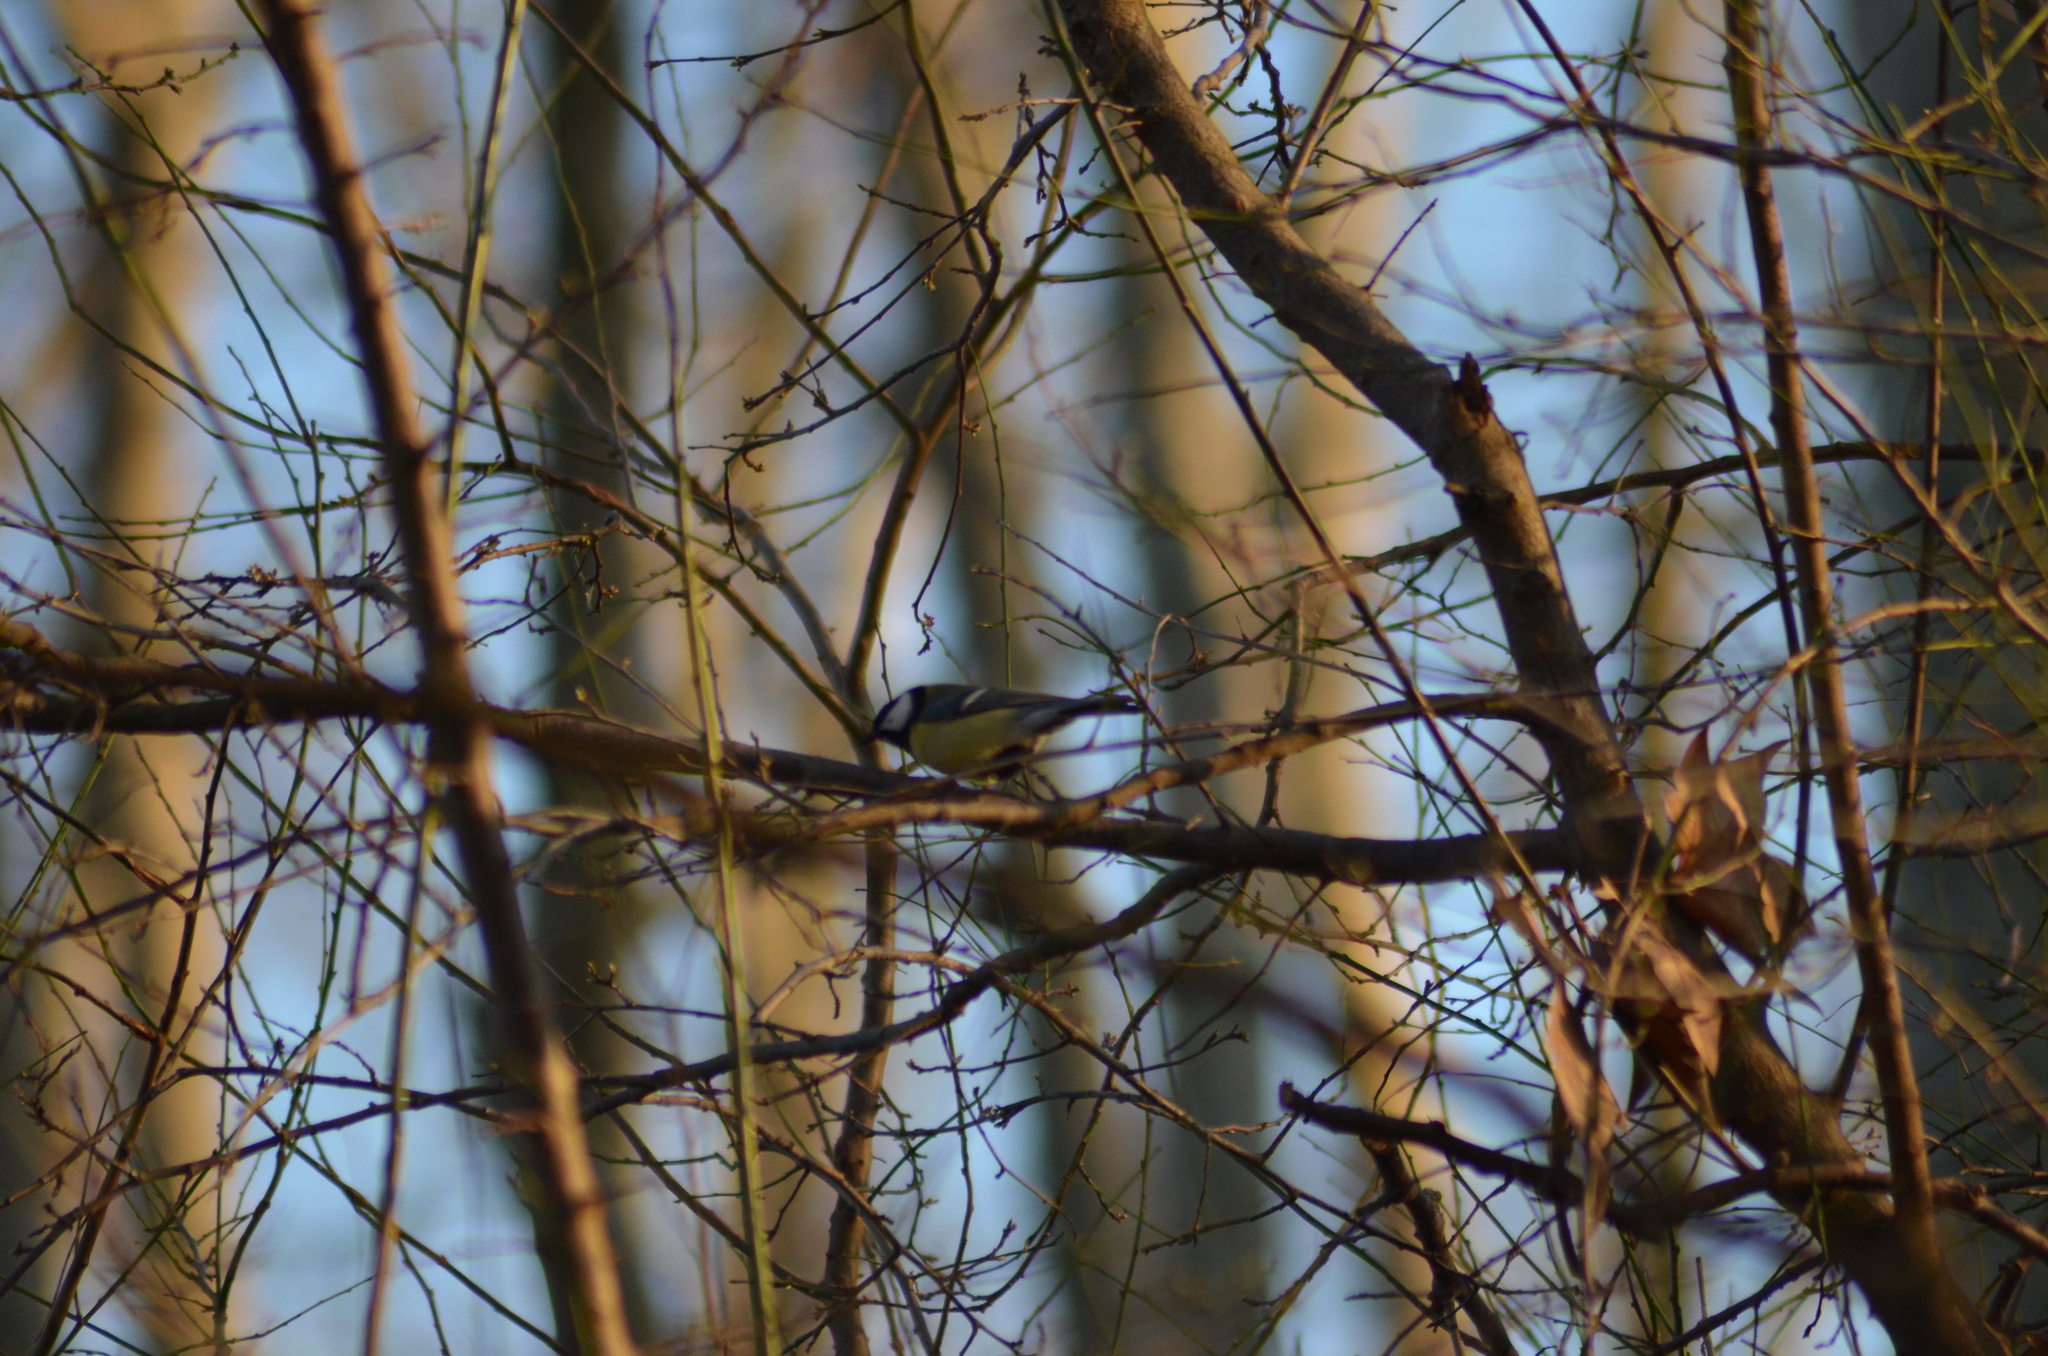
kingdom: Animalia
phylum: Chordata
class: Aves
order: Passeriformes
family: Paridae
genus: Parus
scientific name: Parus major
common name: Great tit
